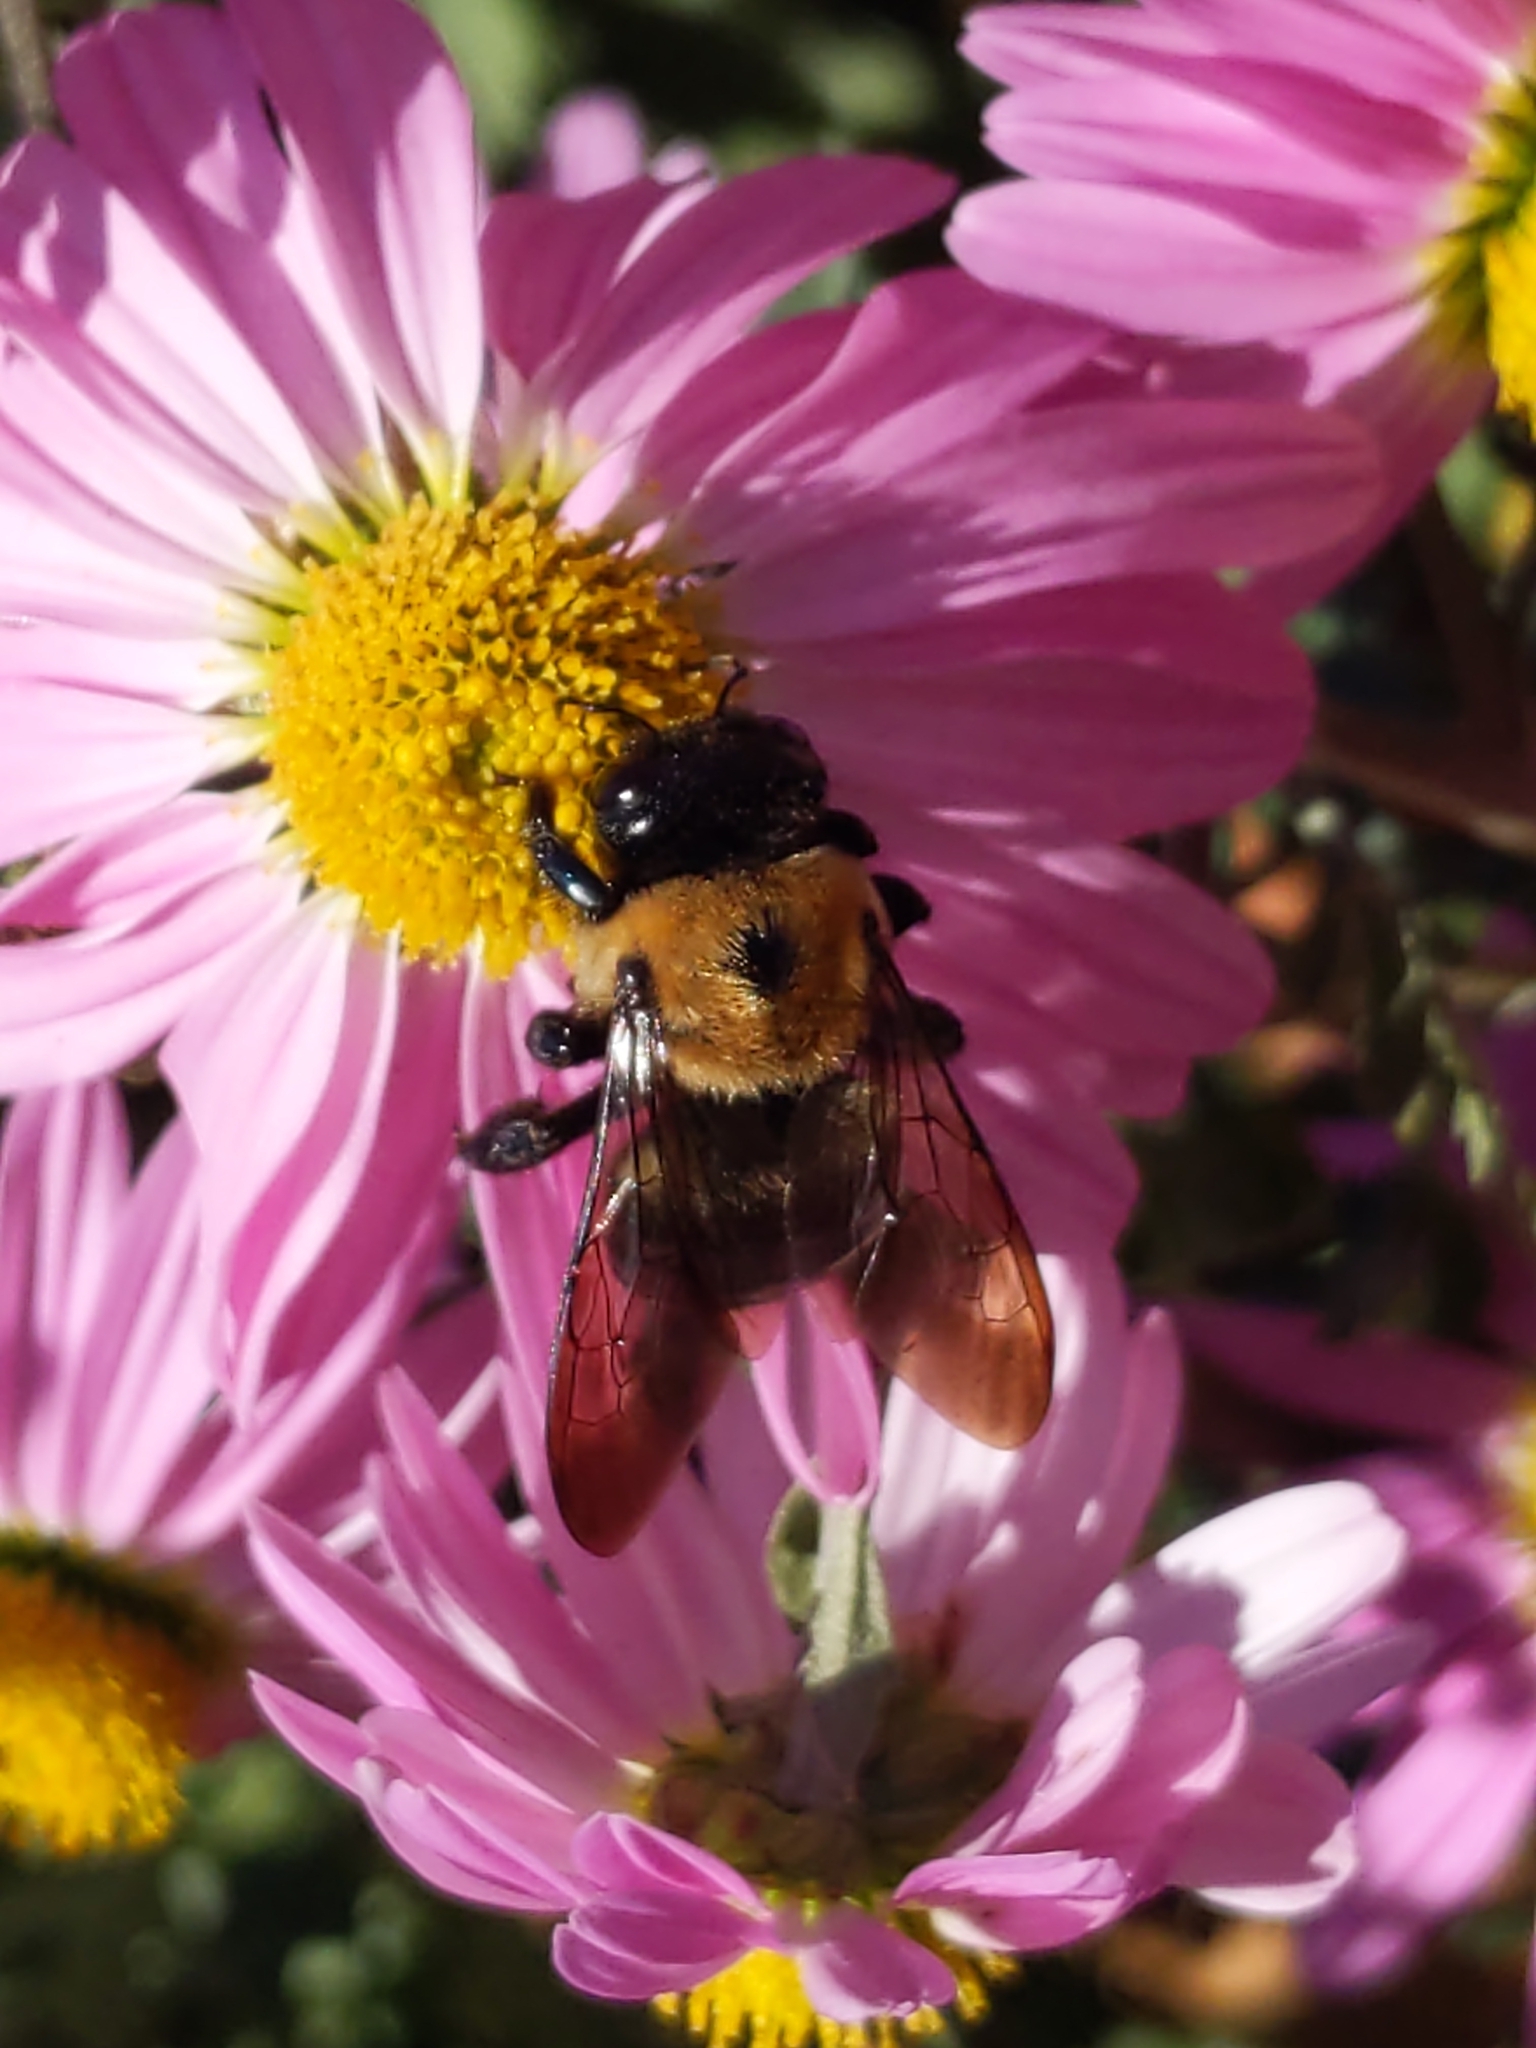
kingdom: Animalia
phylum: Arthropoda
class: Insecta
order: Hymenoptera
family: Apidae
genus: Xylocopa
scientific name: Xylocopa virginica
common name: Carpenter bee
